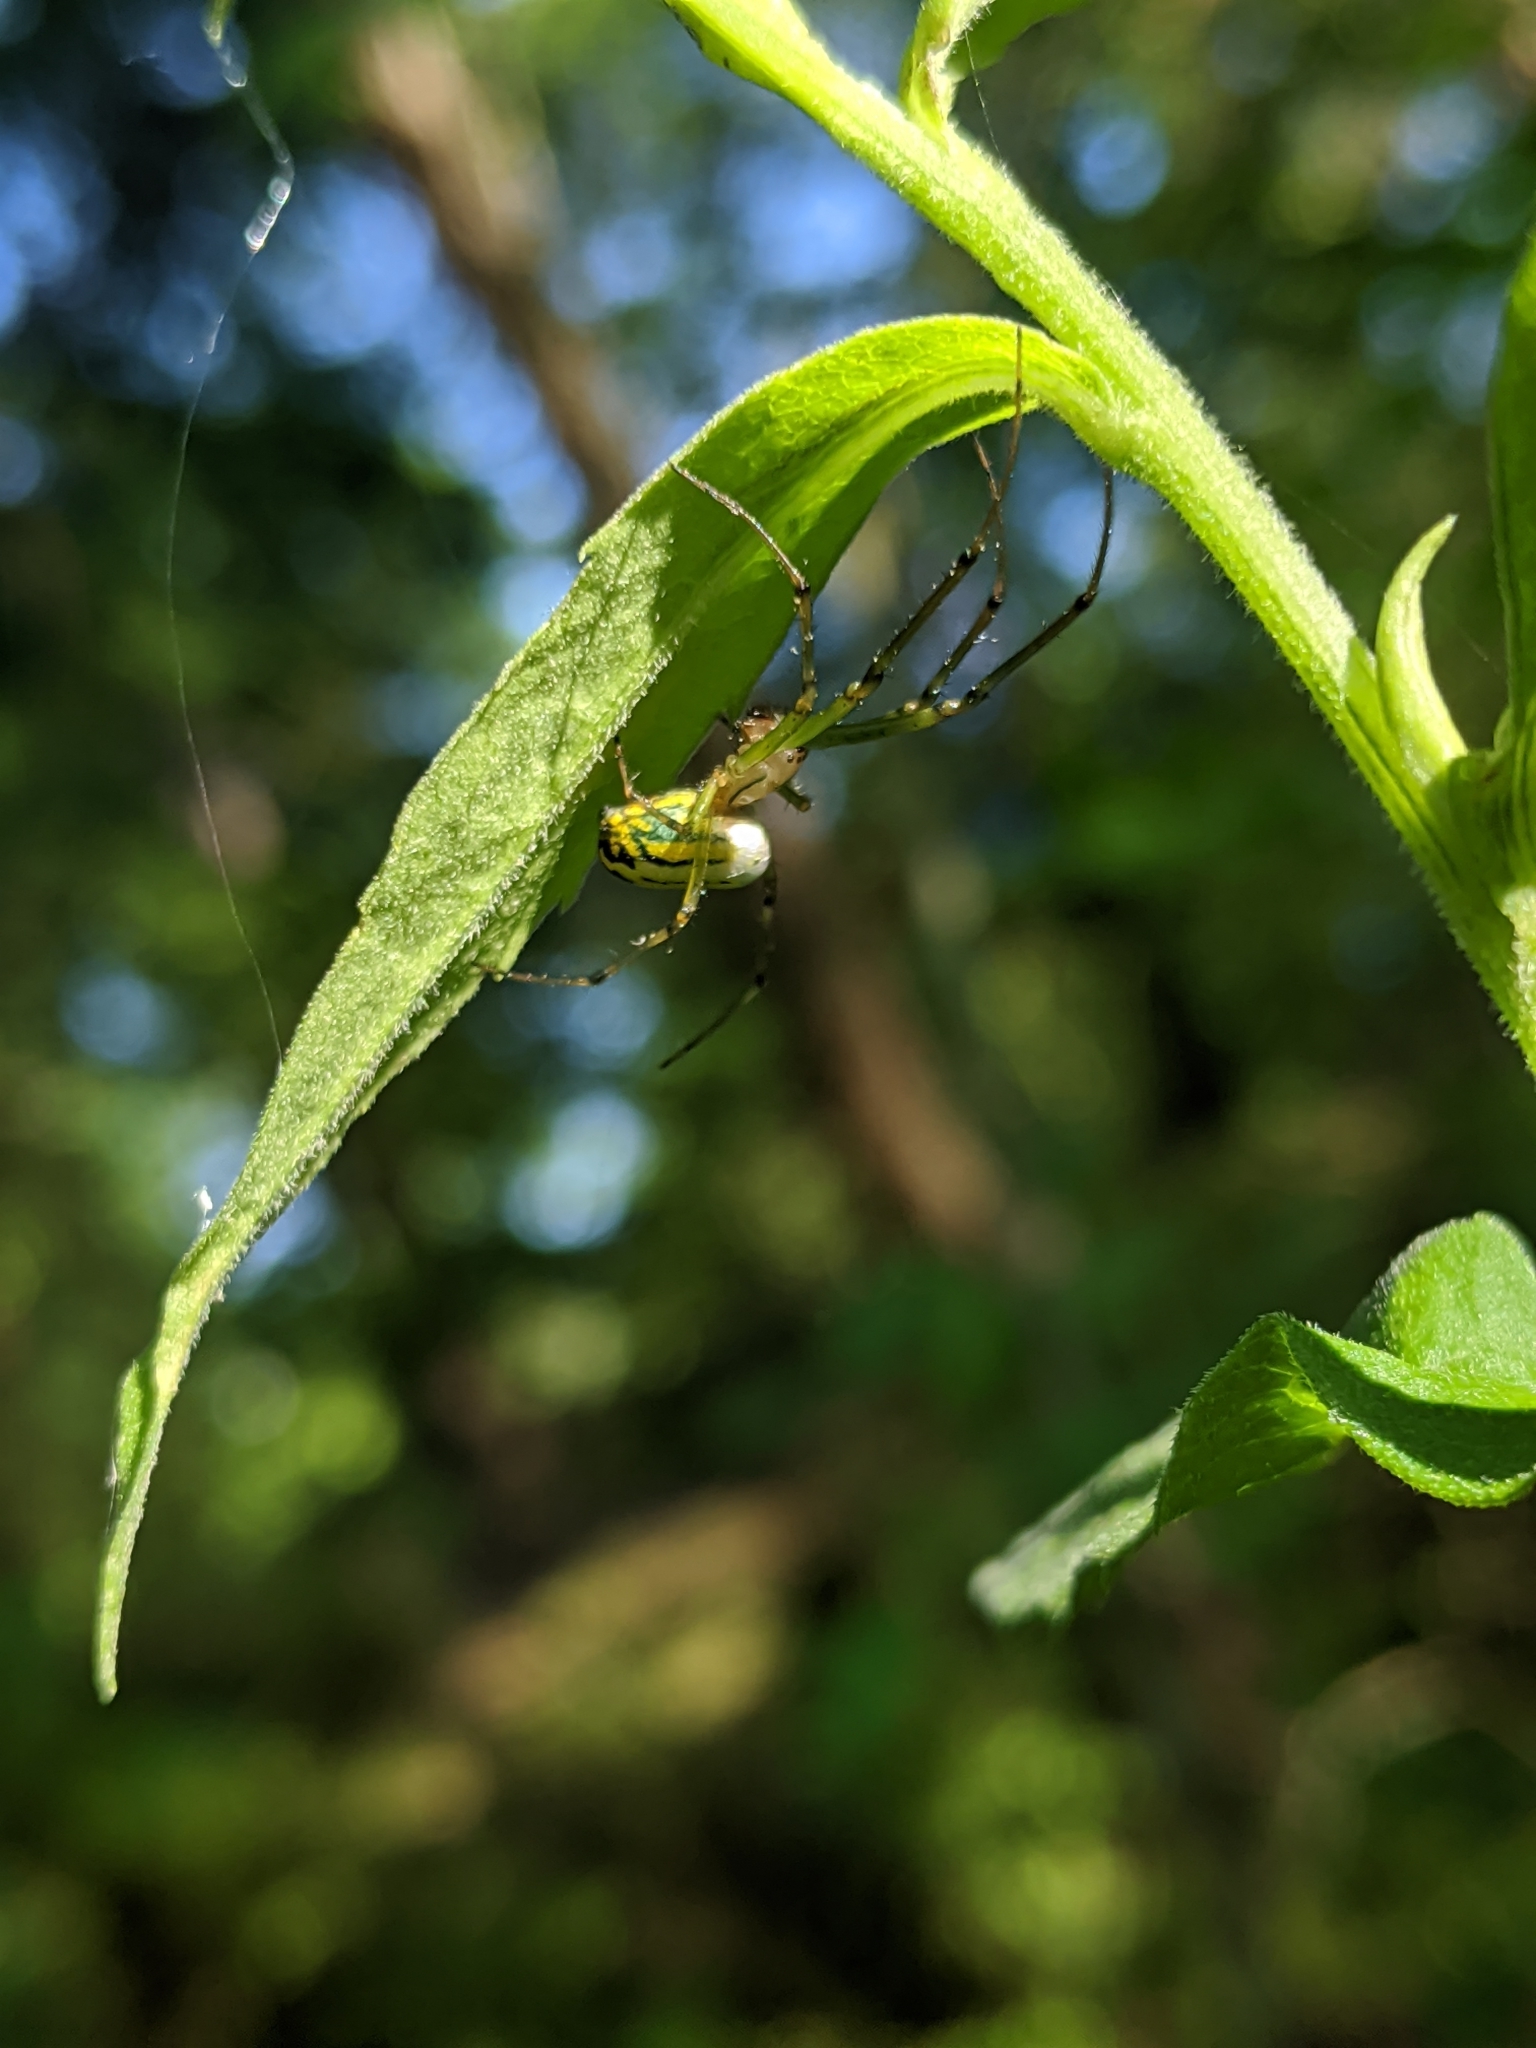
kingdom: Animalia
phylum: Arthropoda
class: Arachnida
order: Araneae
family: Tetragnathidae
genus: Leucauge
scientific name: Leucauge venusta
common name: Longjawed orb weavers
